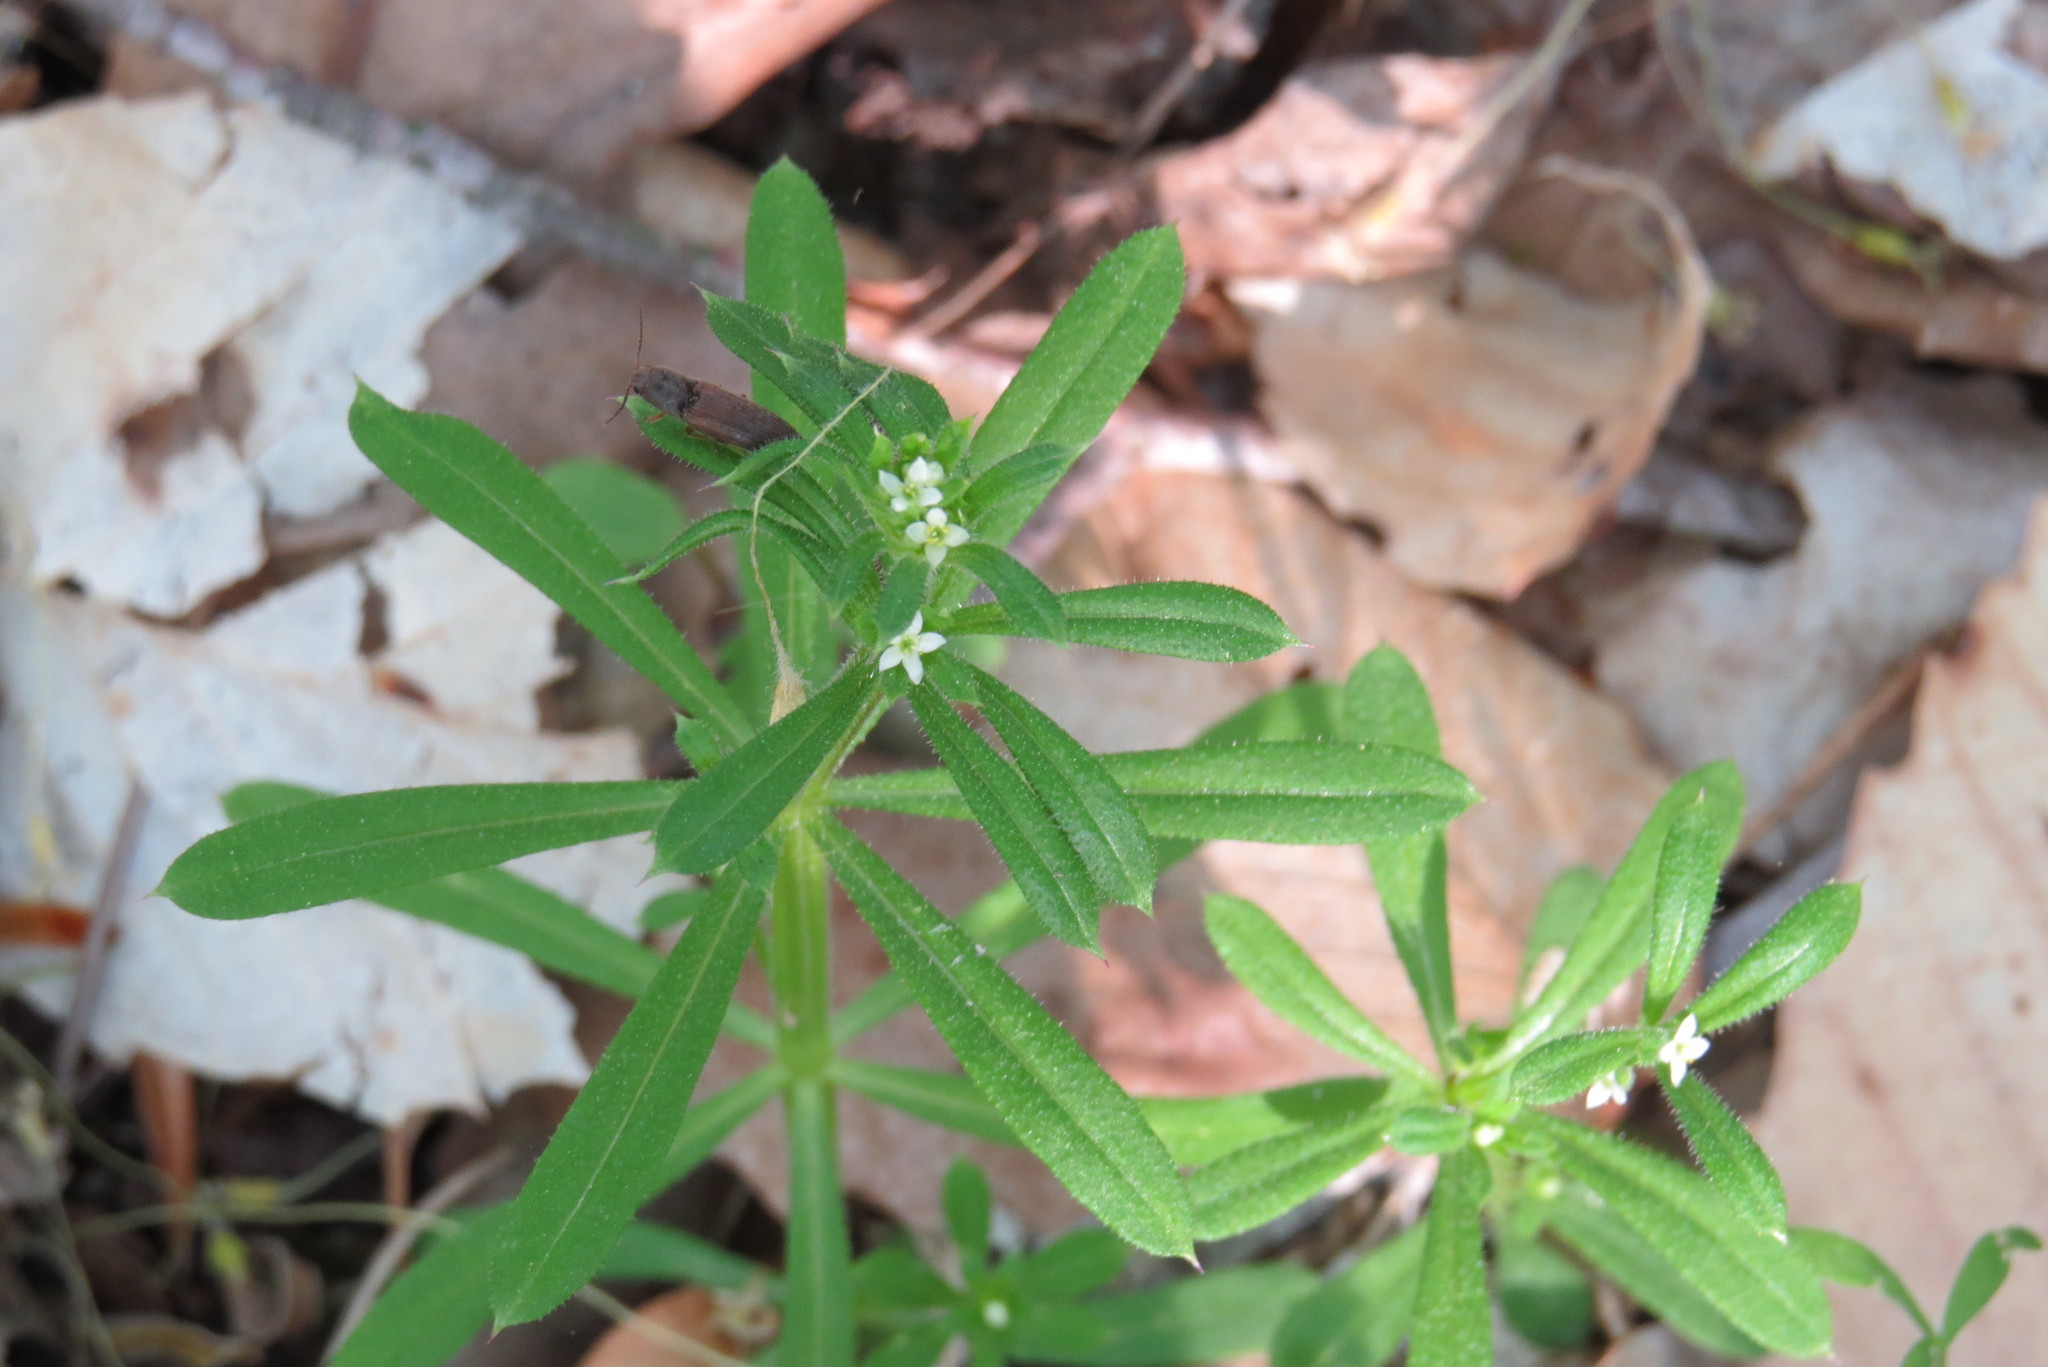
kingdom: Plantae
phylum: Tracheophyta
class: Magnoliopsida
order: Gentianales
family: Rubiaceae
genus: Galium
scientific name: Galium aparine
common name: Cleavers
